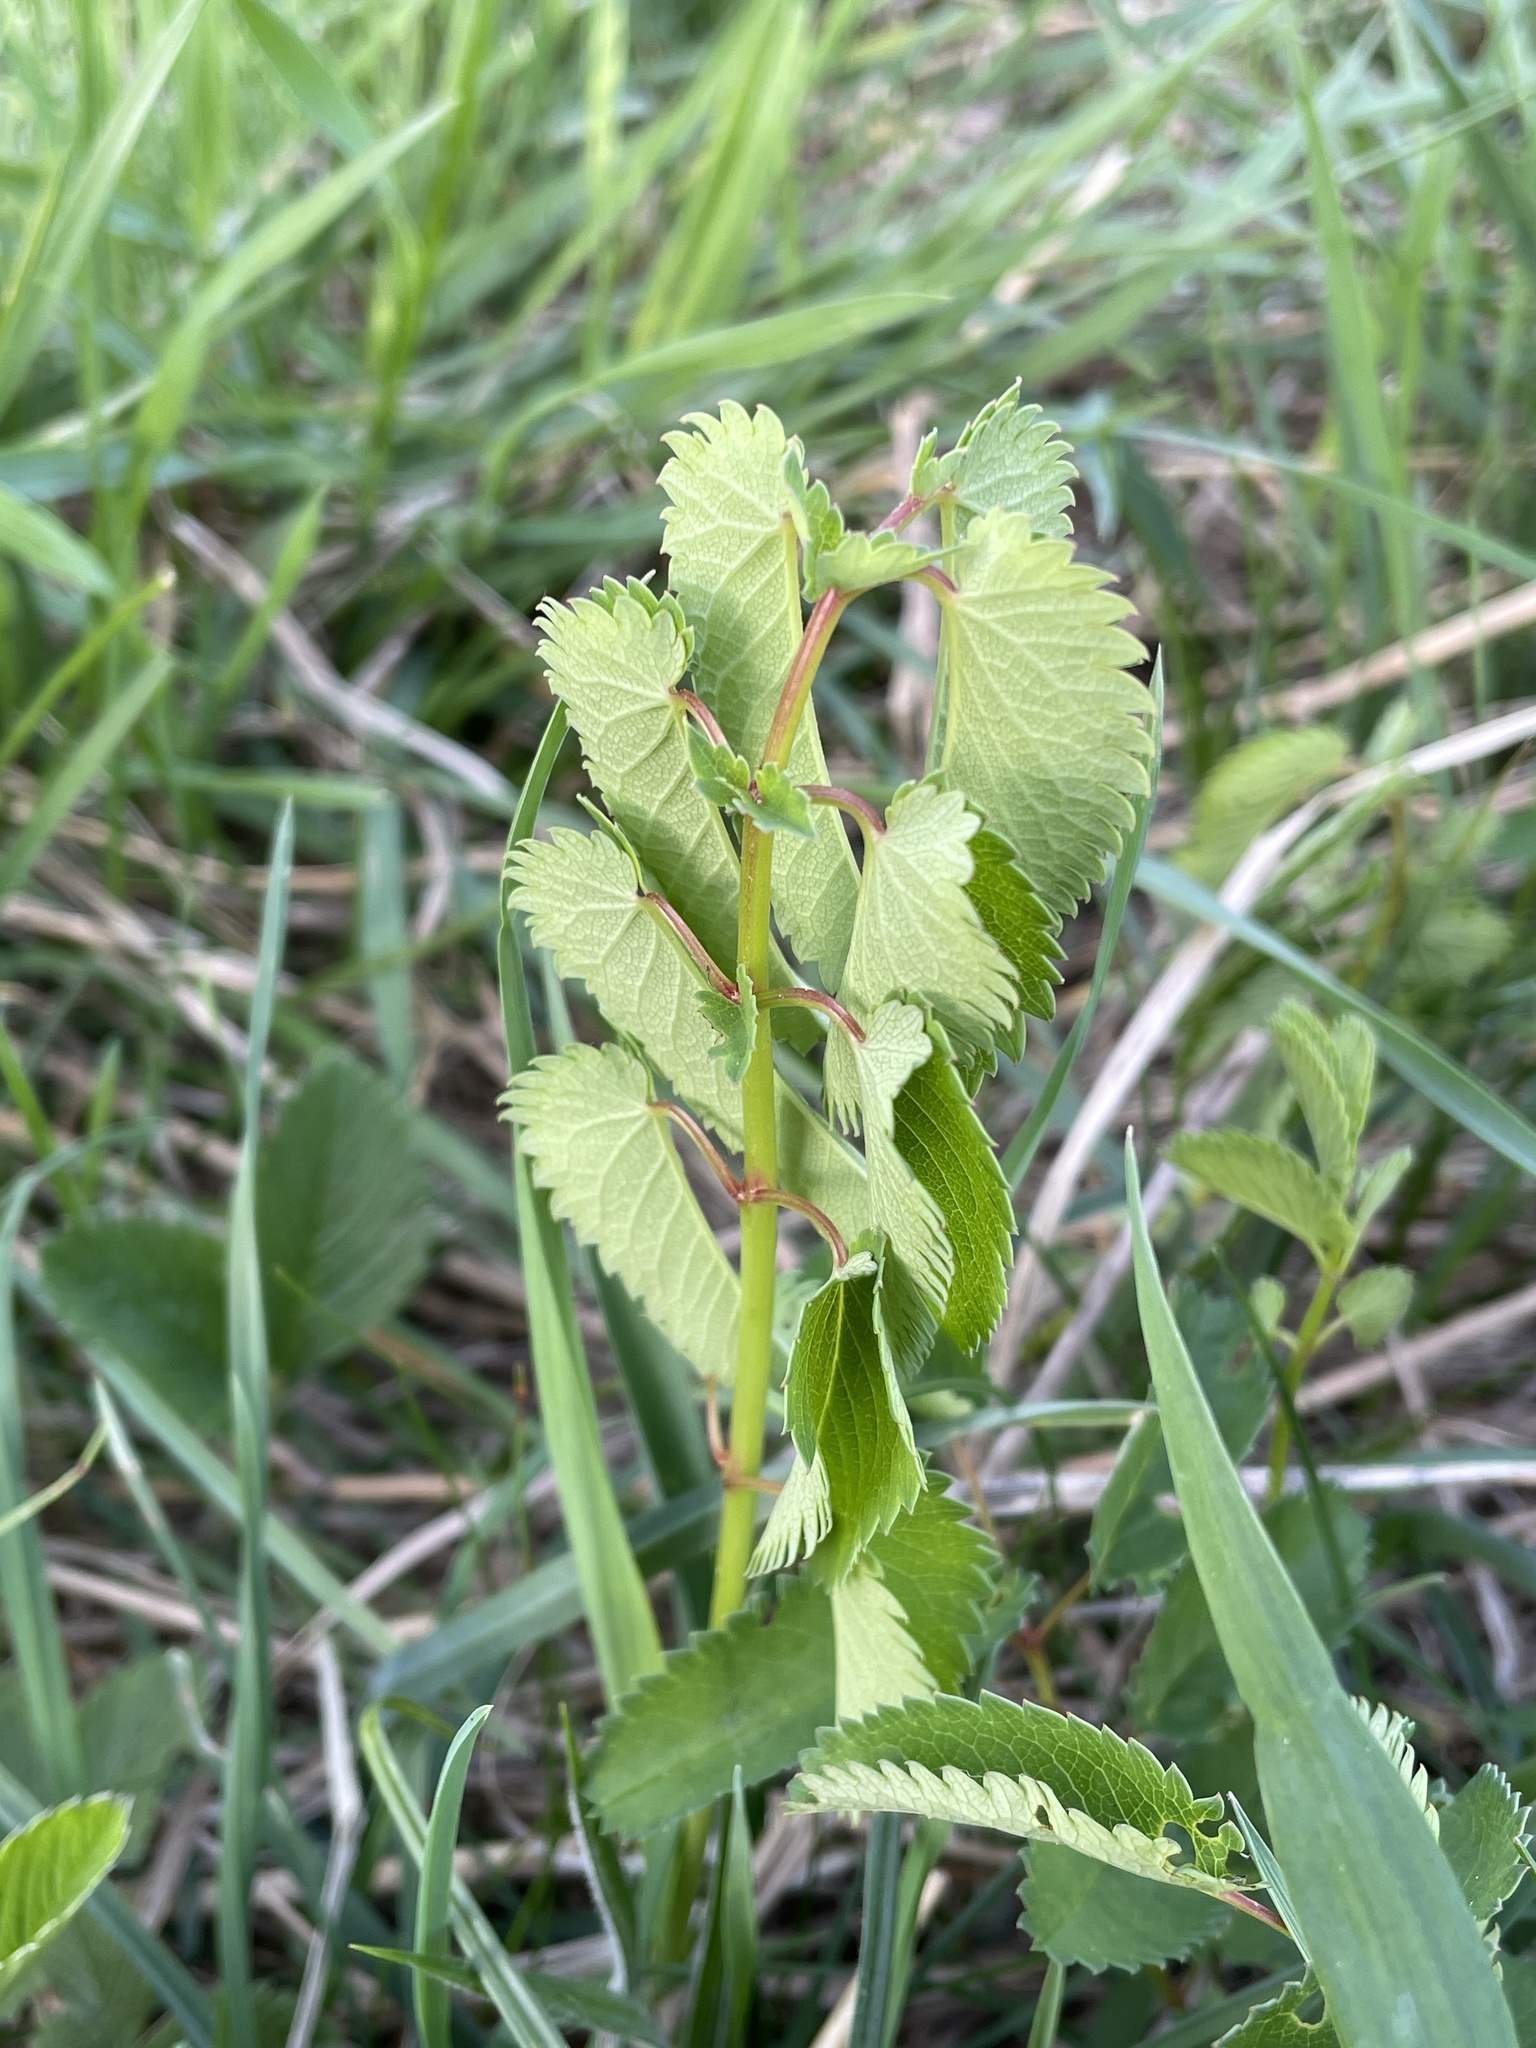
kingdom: Plantae
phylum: Tracheophyta
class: Magnoliopsida
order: Rosales
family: Rosaceae
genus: Sanguisorba
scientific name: Sanguisorba officinalis
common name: Great burnet
